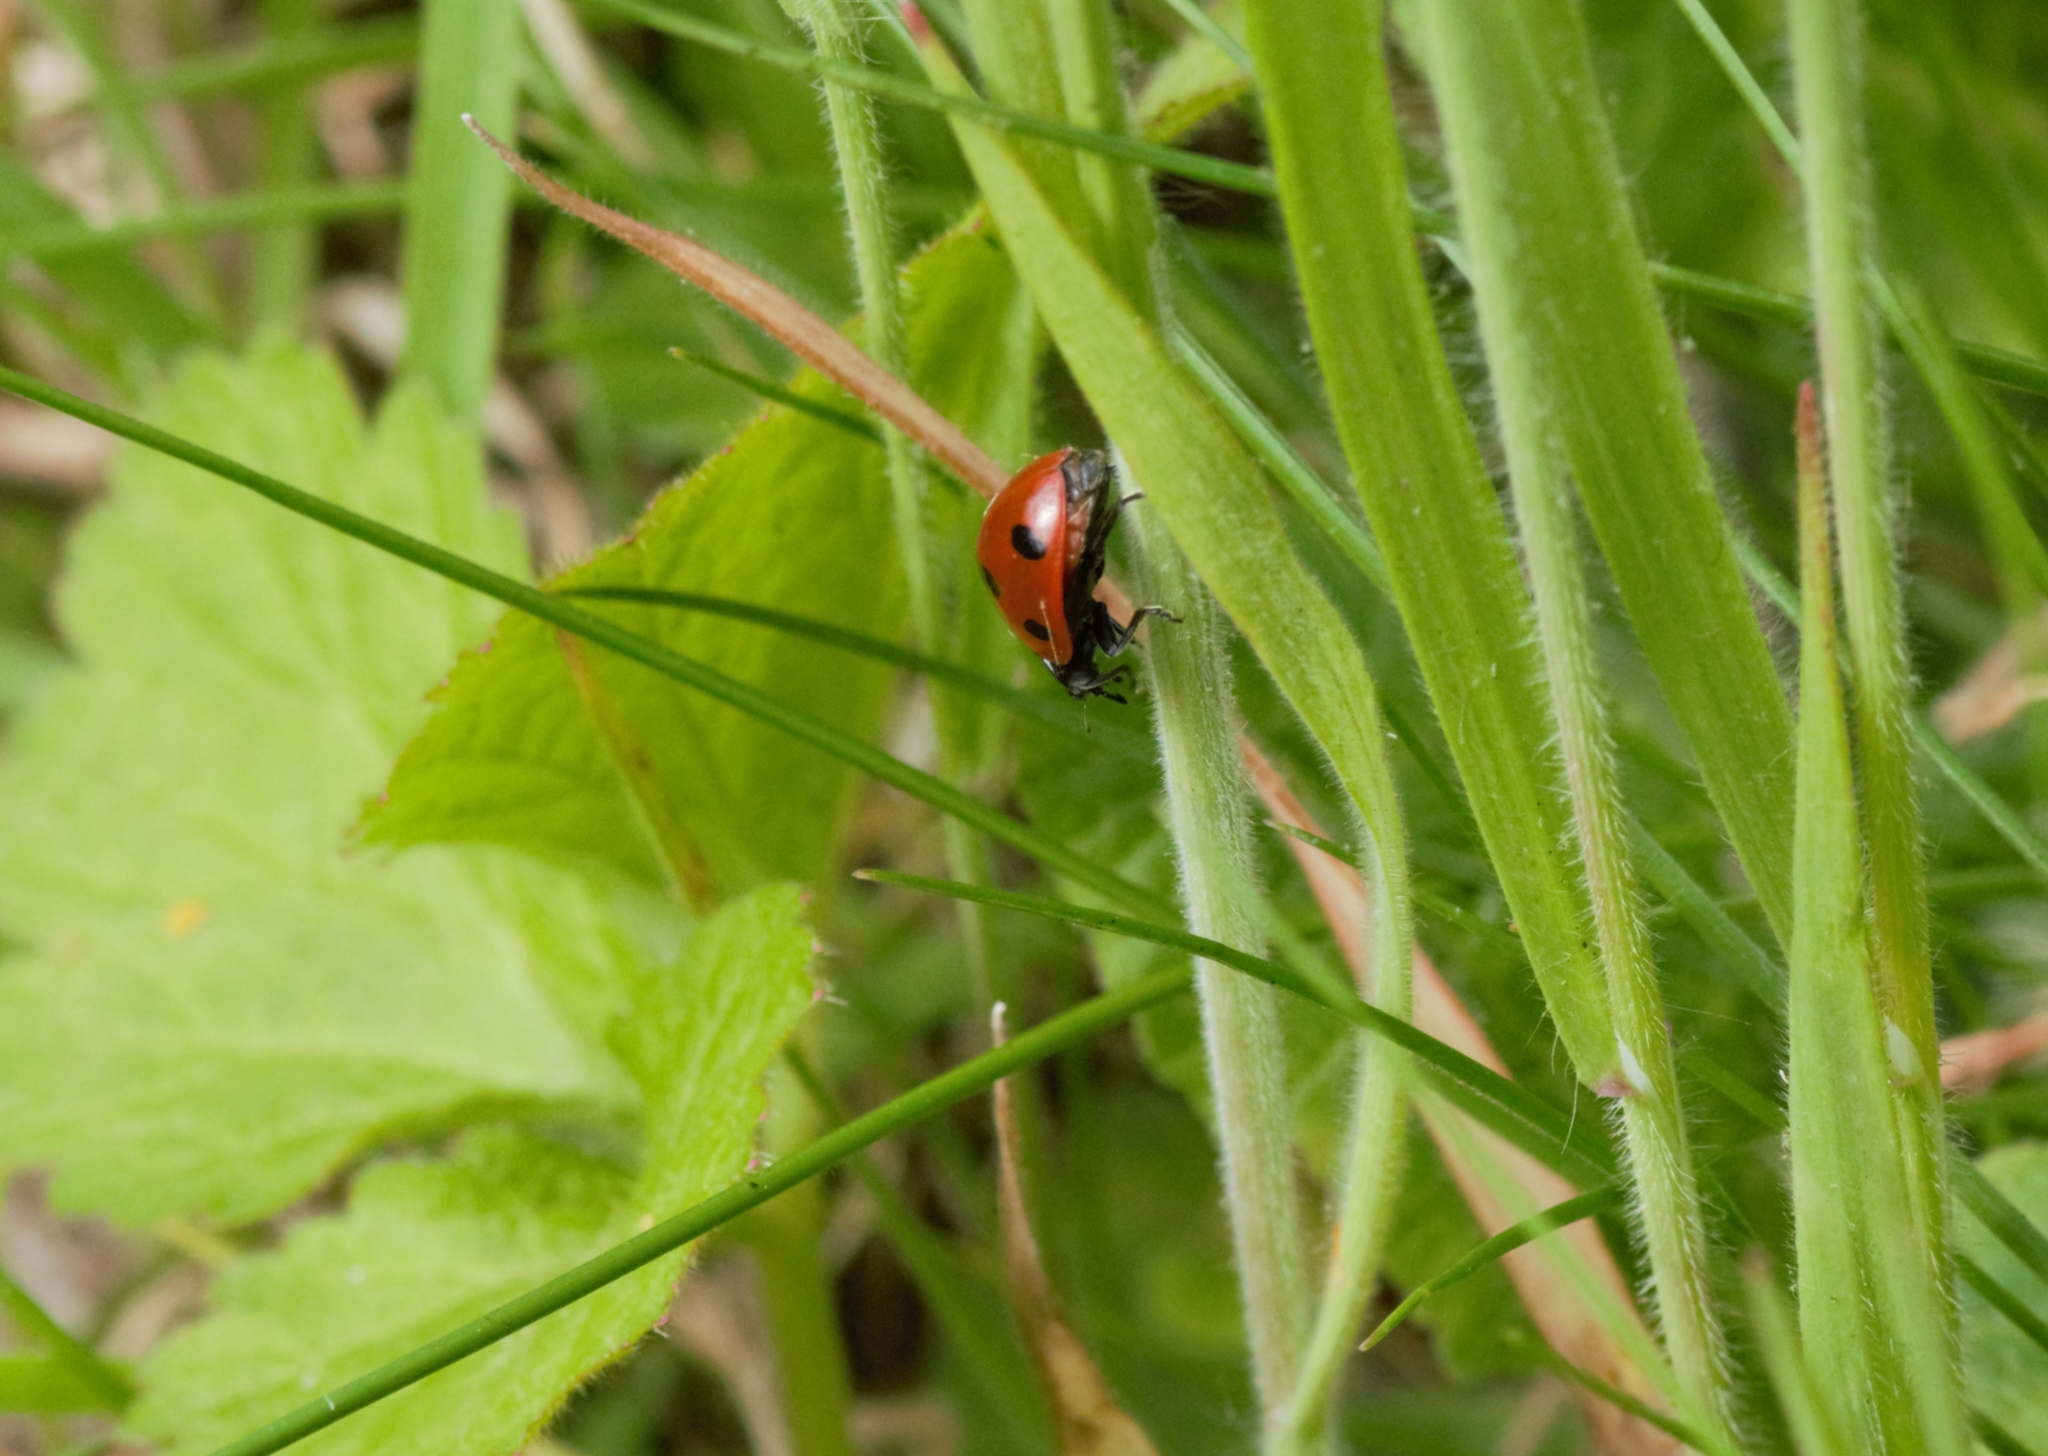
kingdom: Animalia
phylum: Arthropoda
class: Insecta
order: Coleoptera
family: Coccinellidae
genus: Coccinella
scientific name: Coccinella septempunctata
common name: Sevenspotted lady beetle
